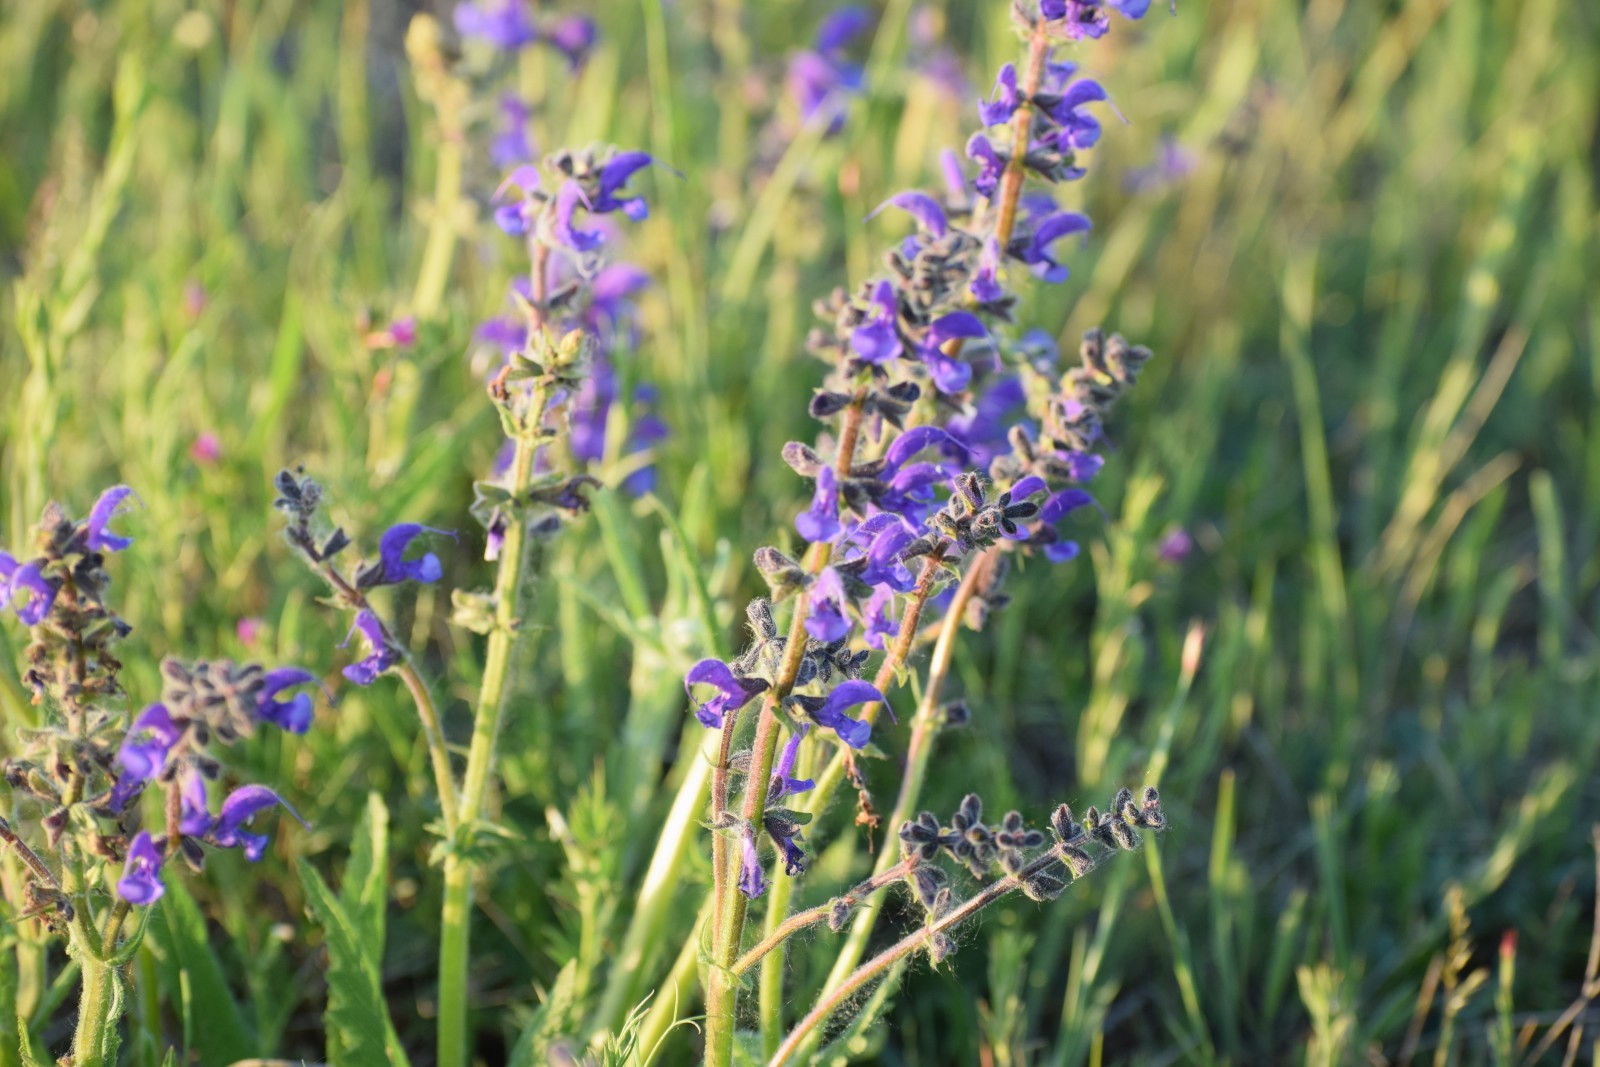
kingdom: Plantae
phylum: Tracheophyta
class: Magnoliopsida
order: Lamiales
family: Lamiaceae
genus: Salvia
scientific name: Salvia pratensis
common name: Meadow sage
